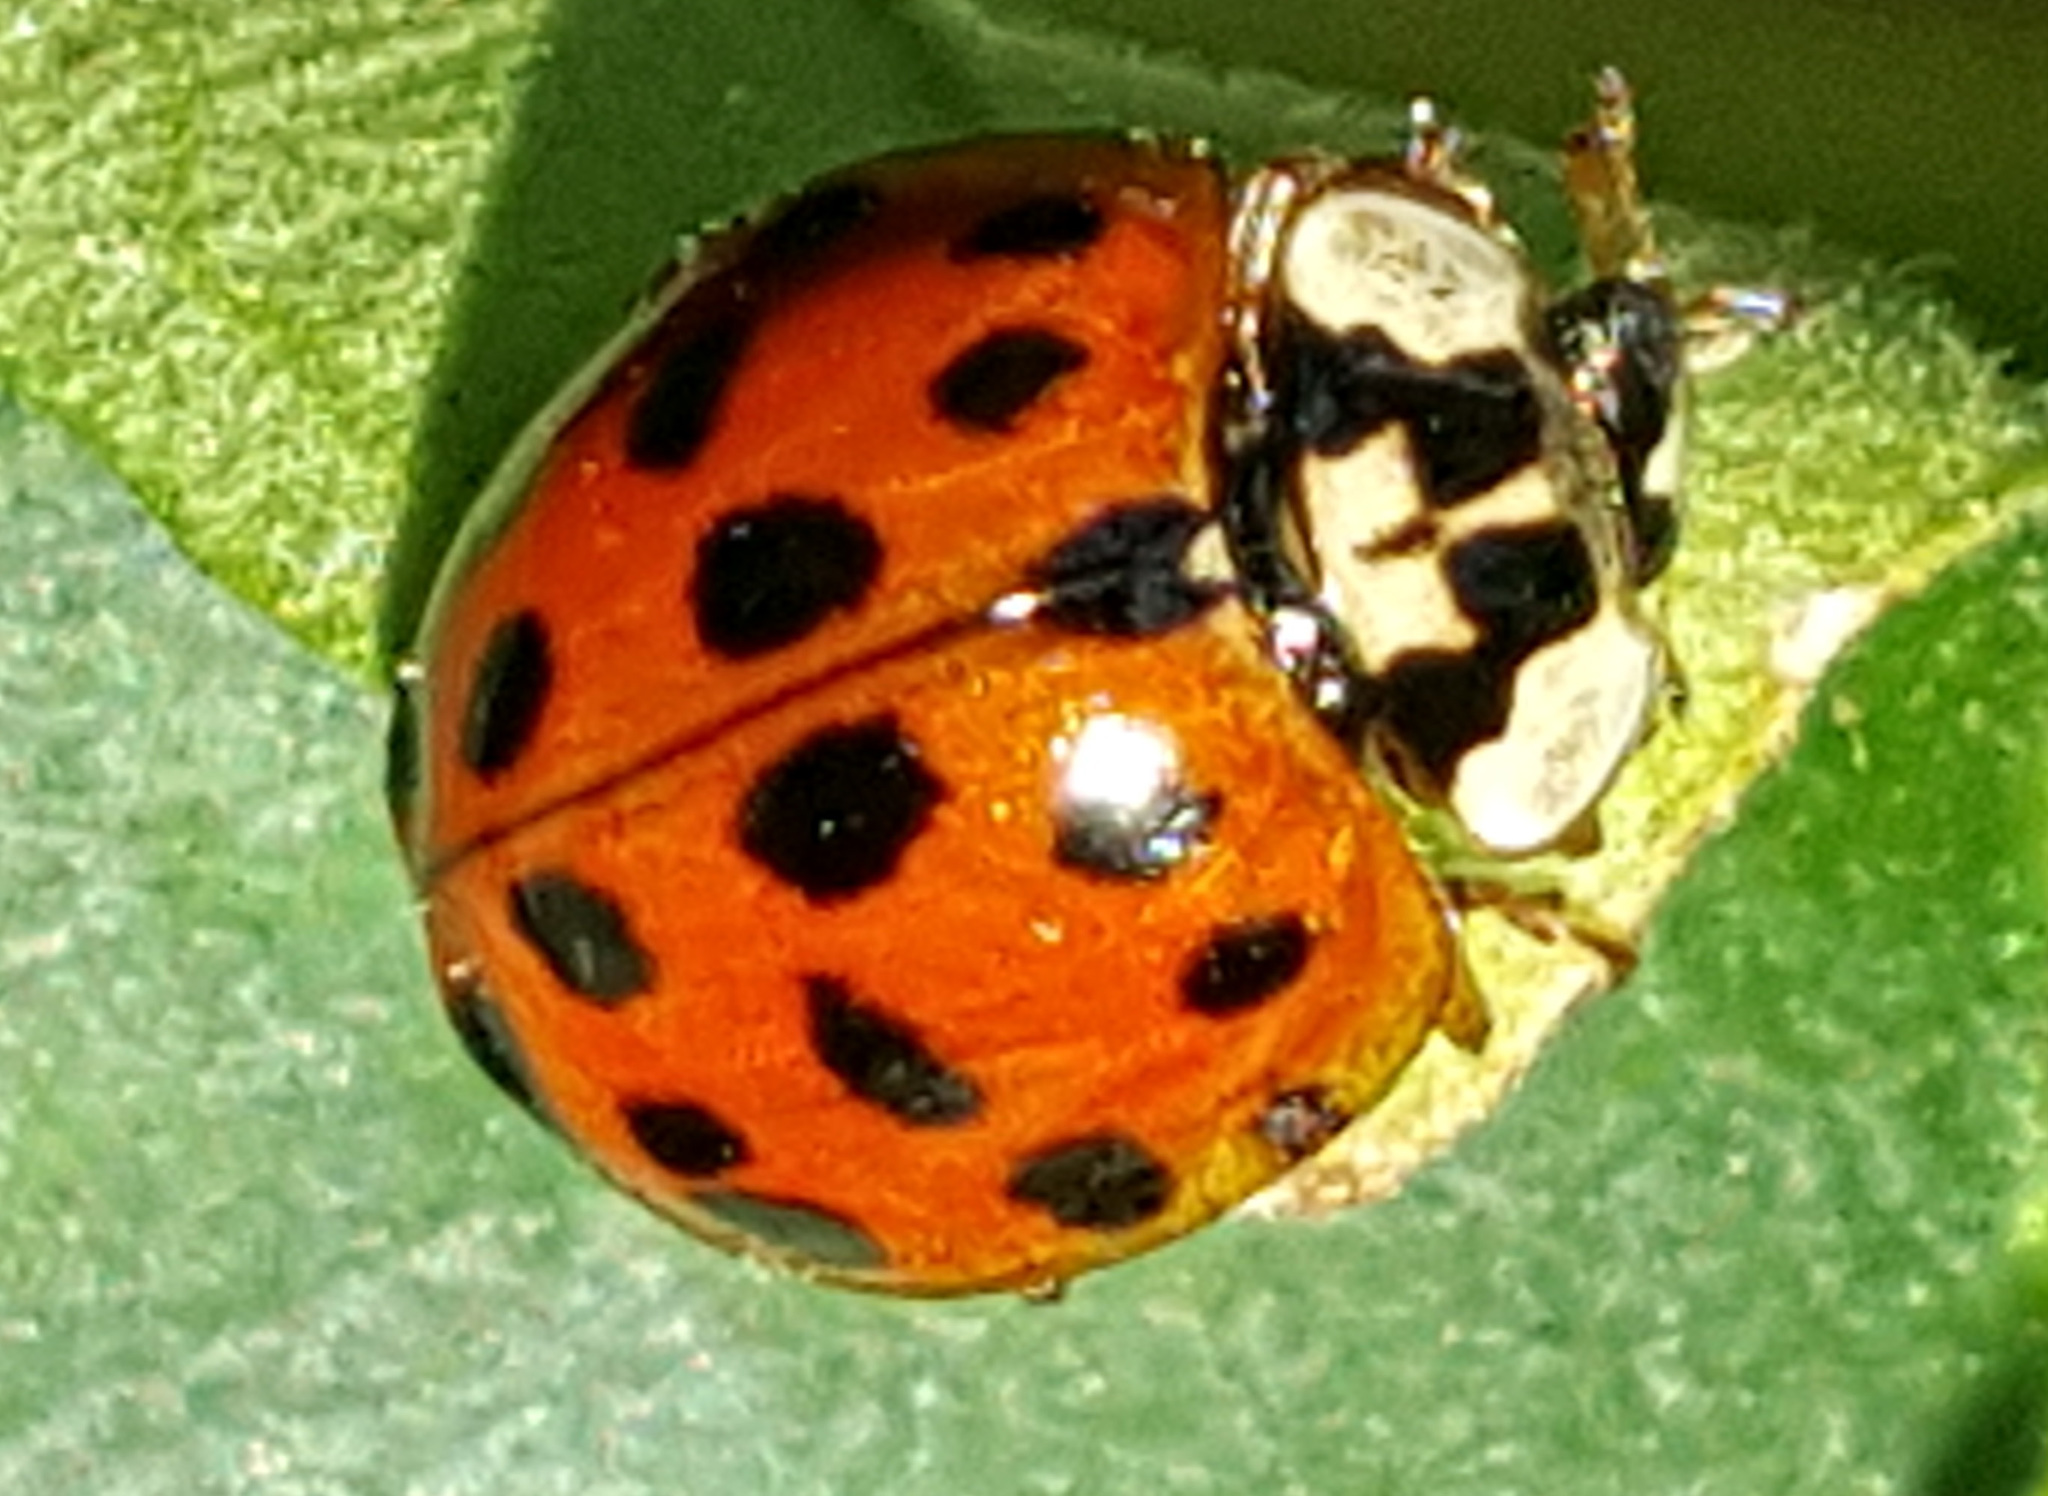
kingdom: Animalia
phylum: Arthropoda
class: Insecta
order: Coleoptera
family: Coccinellidae
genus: Harmonia
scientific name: Harmonia axyridis
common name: Harlequin ladybird
